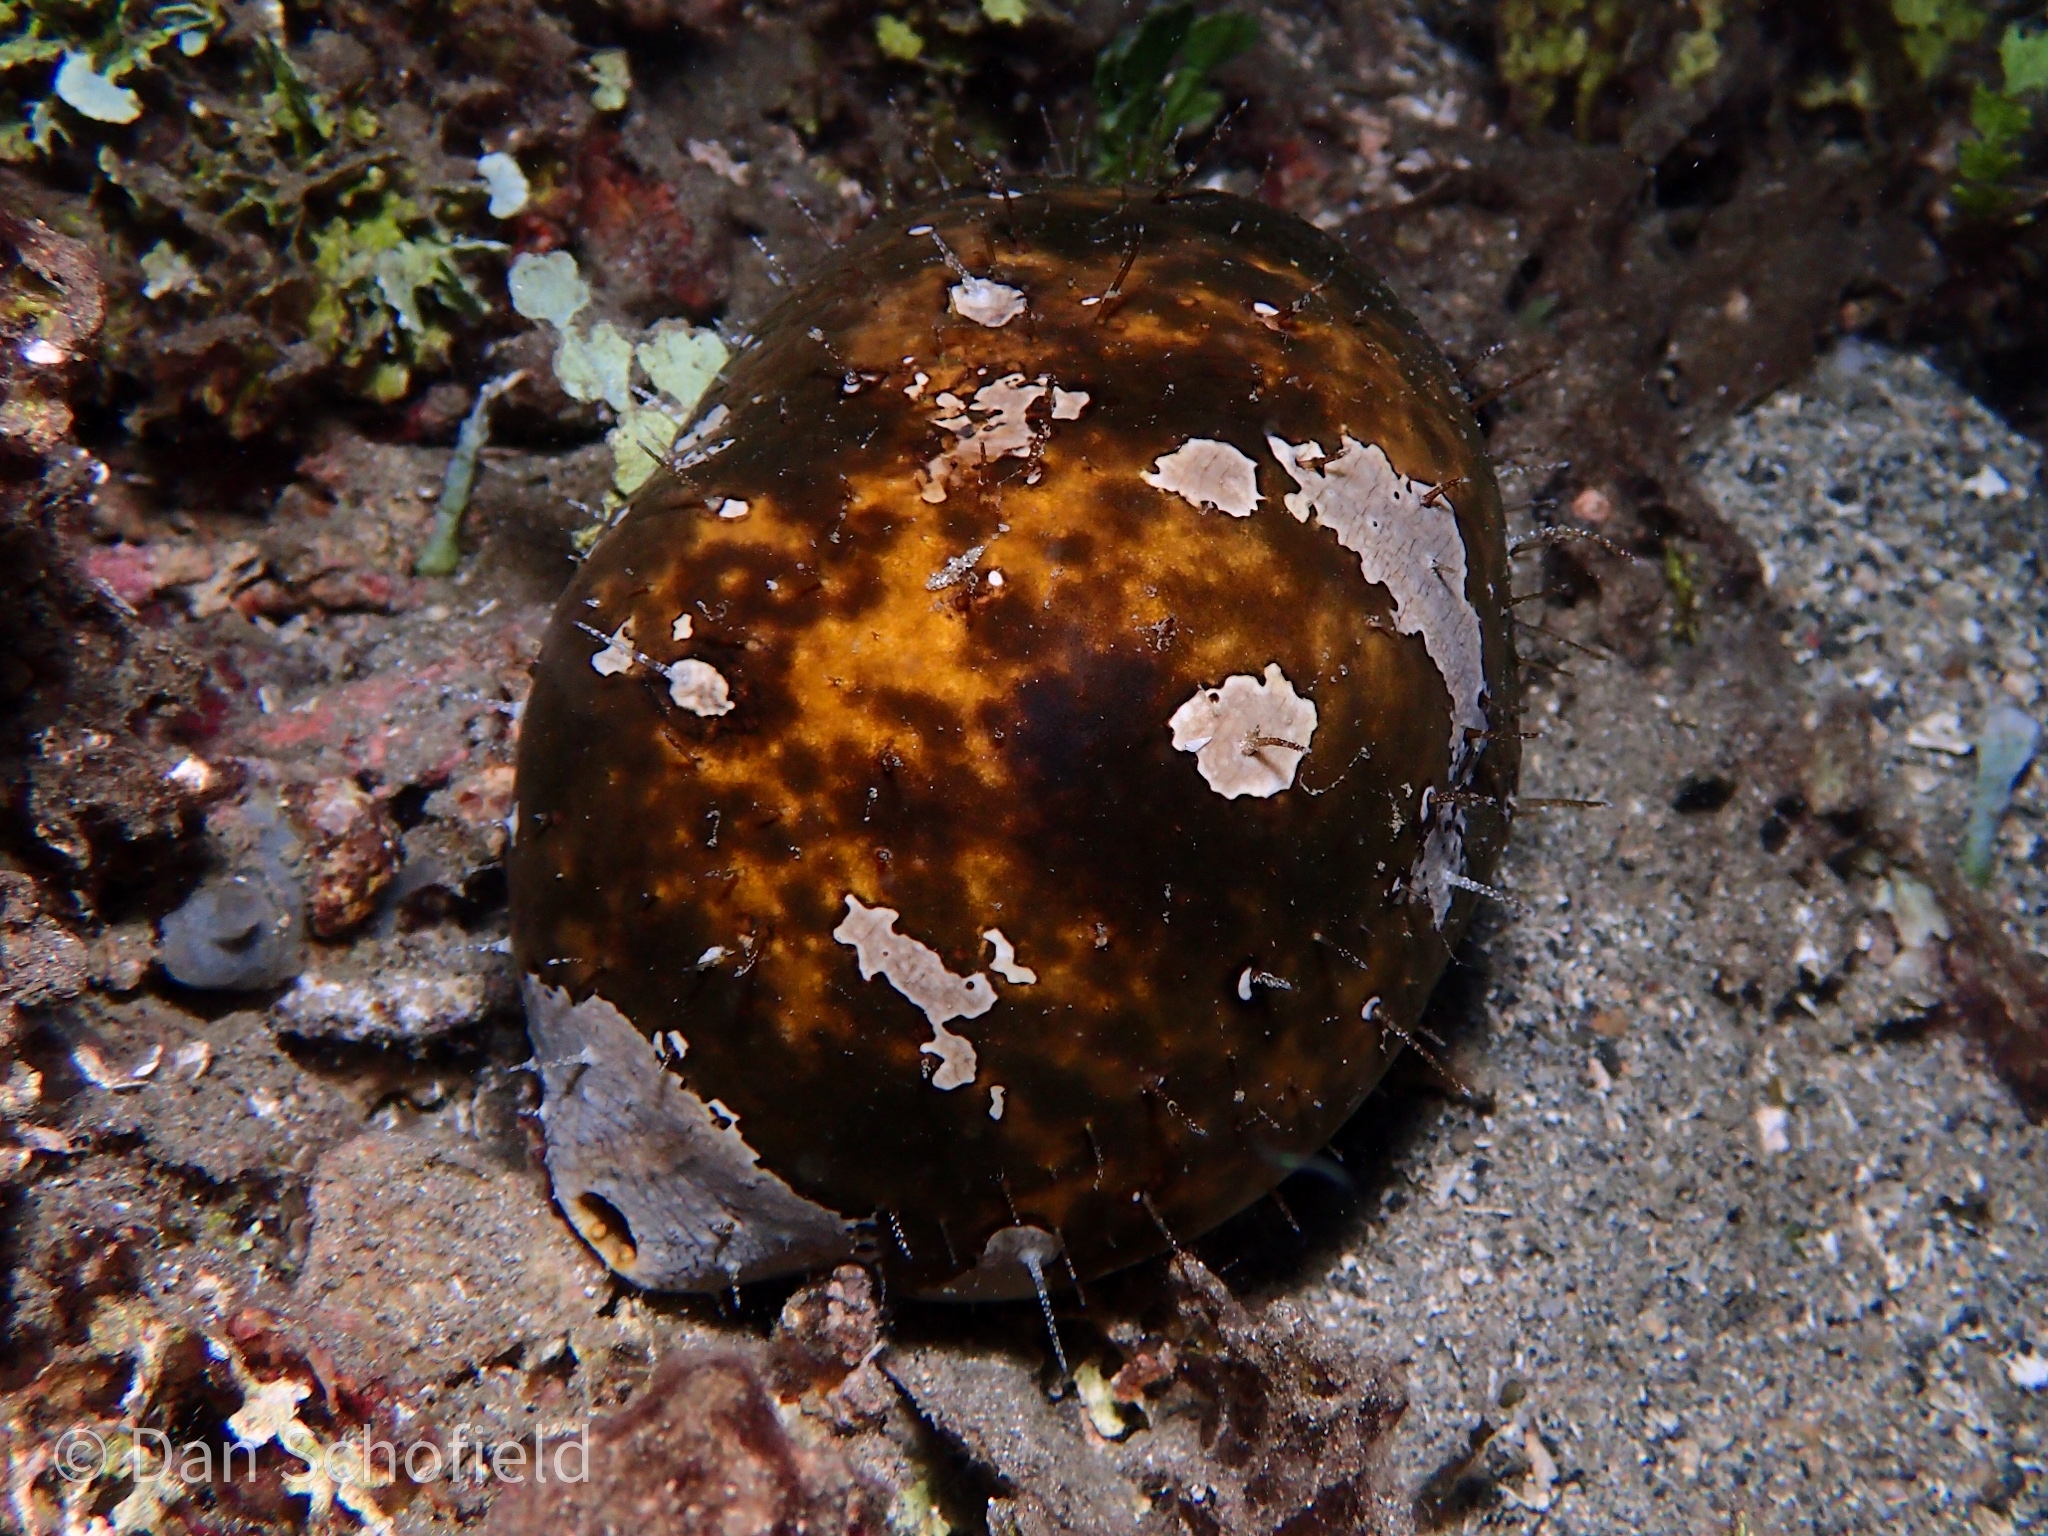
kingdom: Animalia
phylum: Echinodermata
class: Holothuroidea
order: Holothuriida
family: Holothuriidae
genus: Actinopyga
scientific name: Actinopyga lecanora
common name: Stonefish
